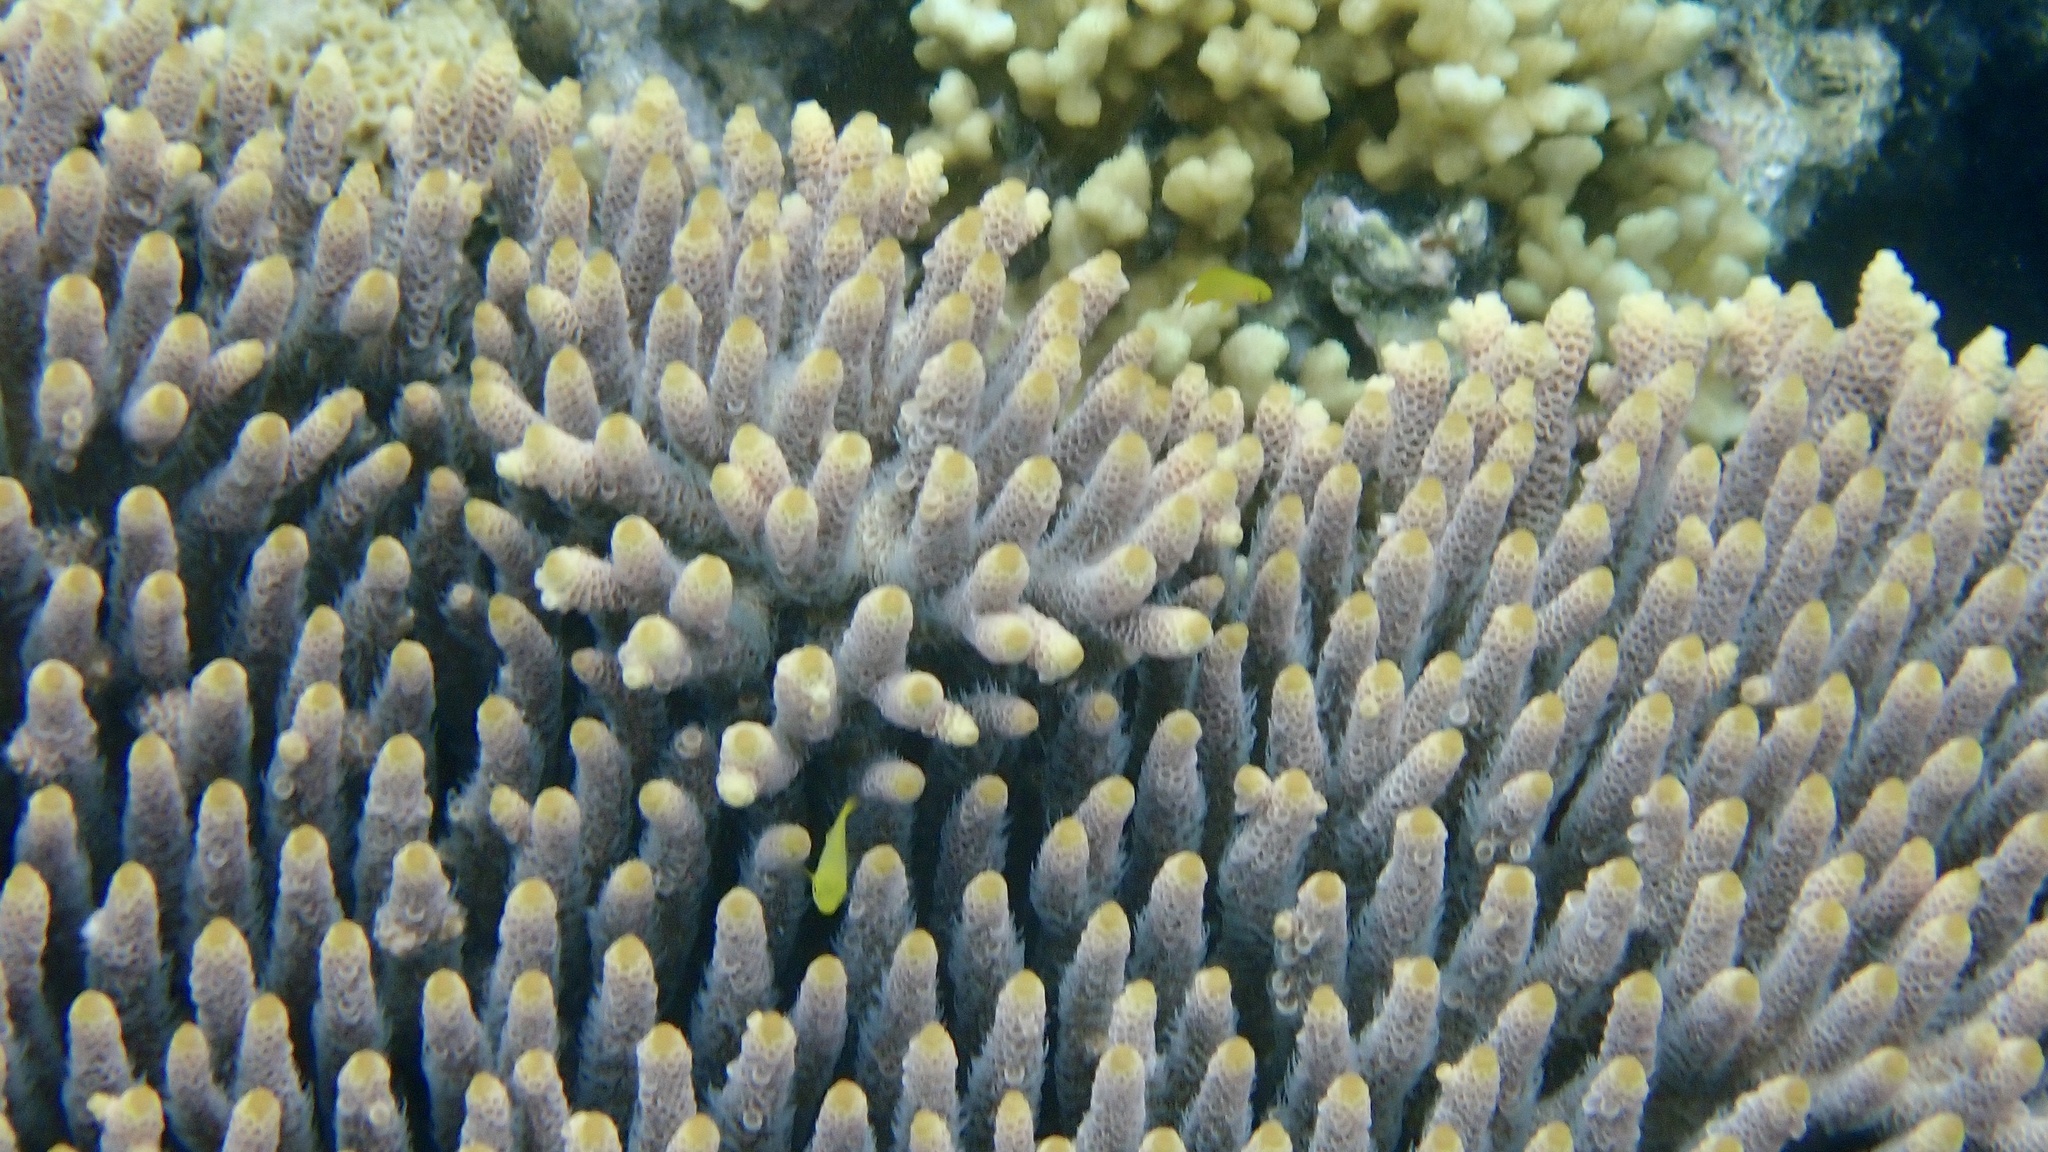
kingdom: Animalia
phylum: Cnidaria
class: Anthozoa
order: Scleractinia
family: Acroporidae
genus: Acropora
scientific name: Acropora millepora
